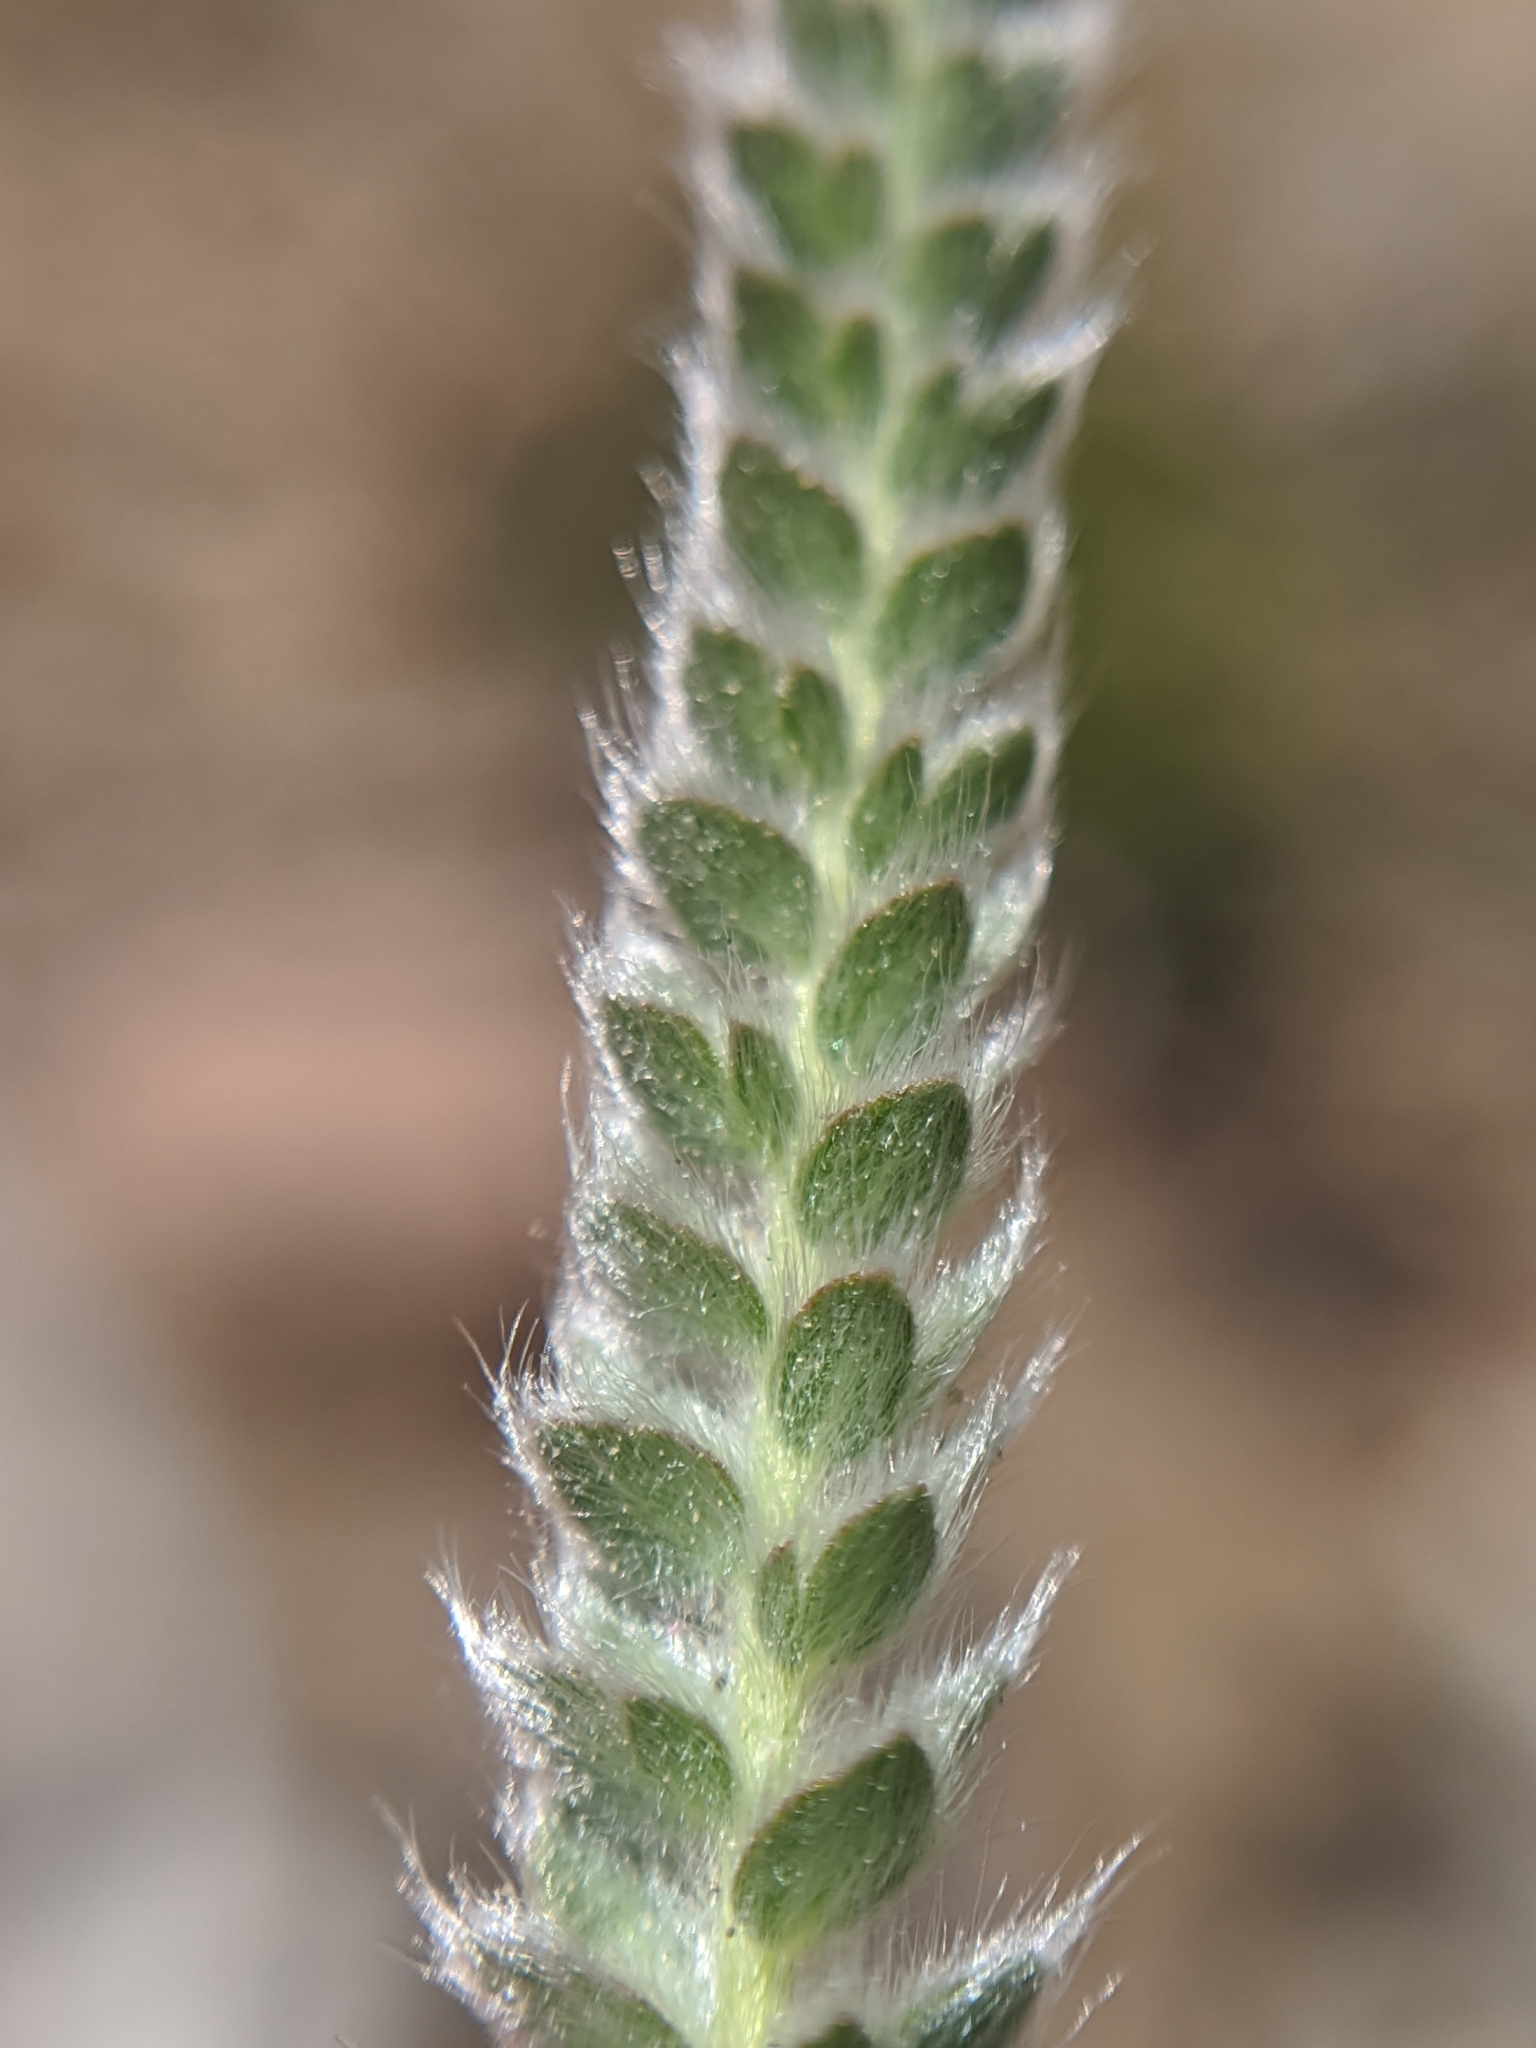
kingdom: Plantae
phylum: Tracheophyta
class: Magnoliopsida
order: Rosales
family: Rosaceae
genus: Potentilla
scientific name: Potentilla argyrocoma
